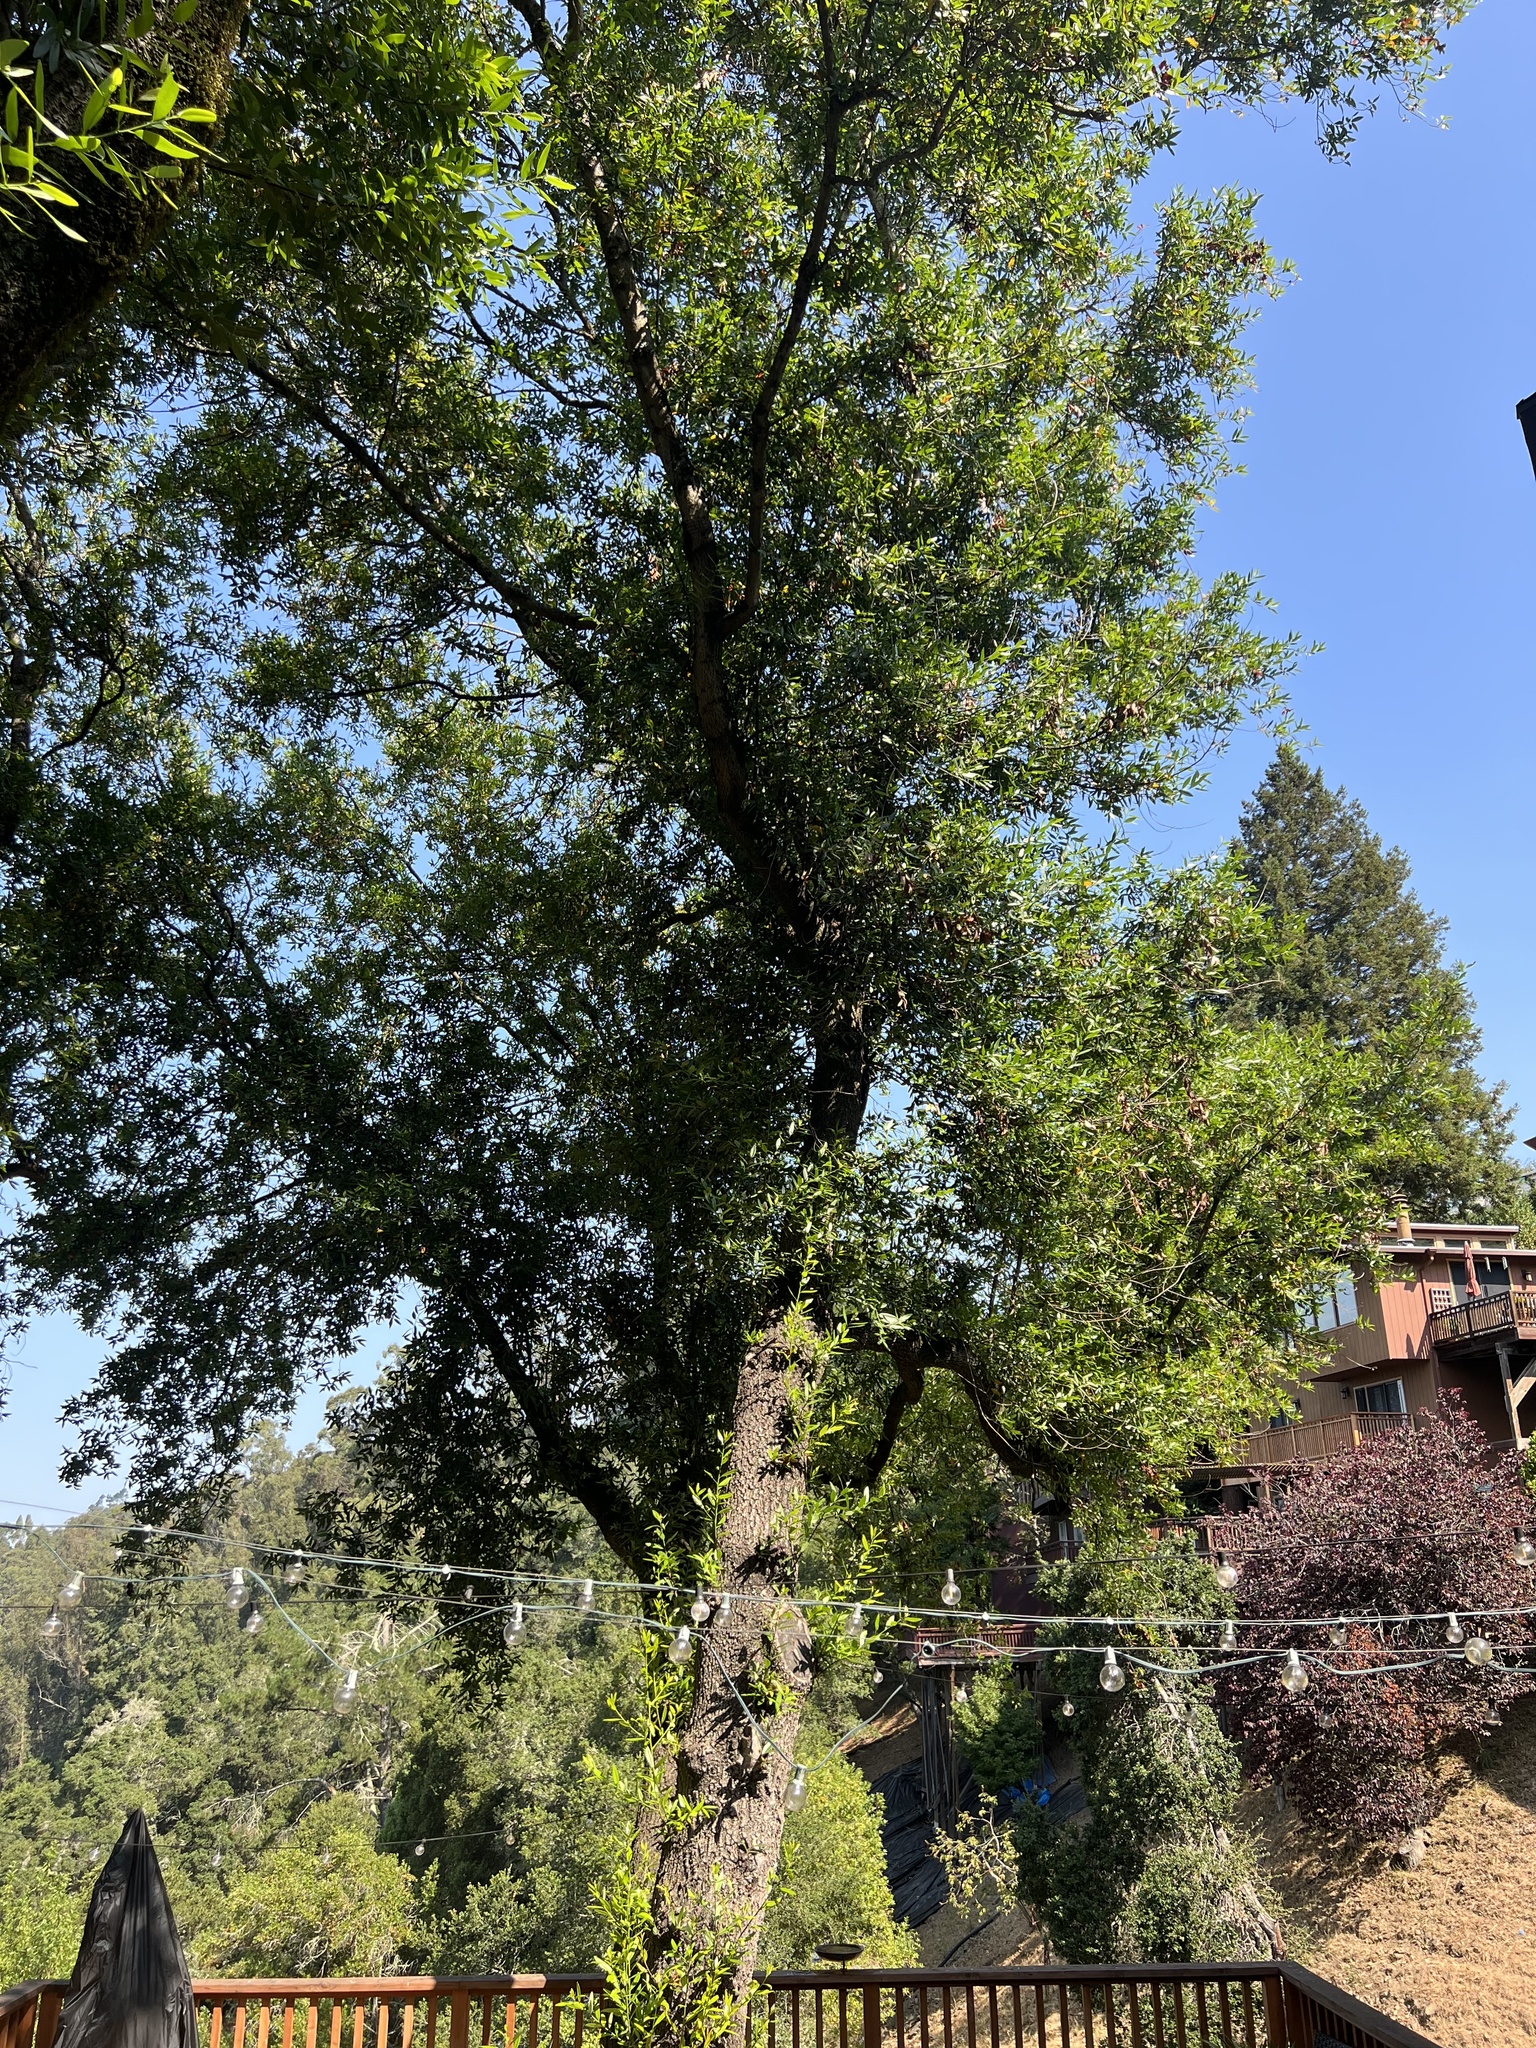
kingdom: Plantae
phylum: Tracheophyta
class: Magnoliopsida
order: Laurales
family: Lauraceae
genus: Umbellularia
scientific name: Umbellularia californica
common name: California bay
